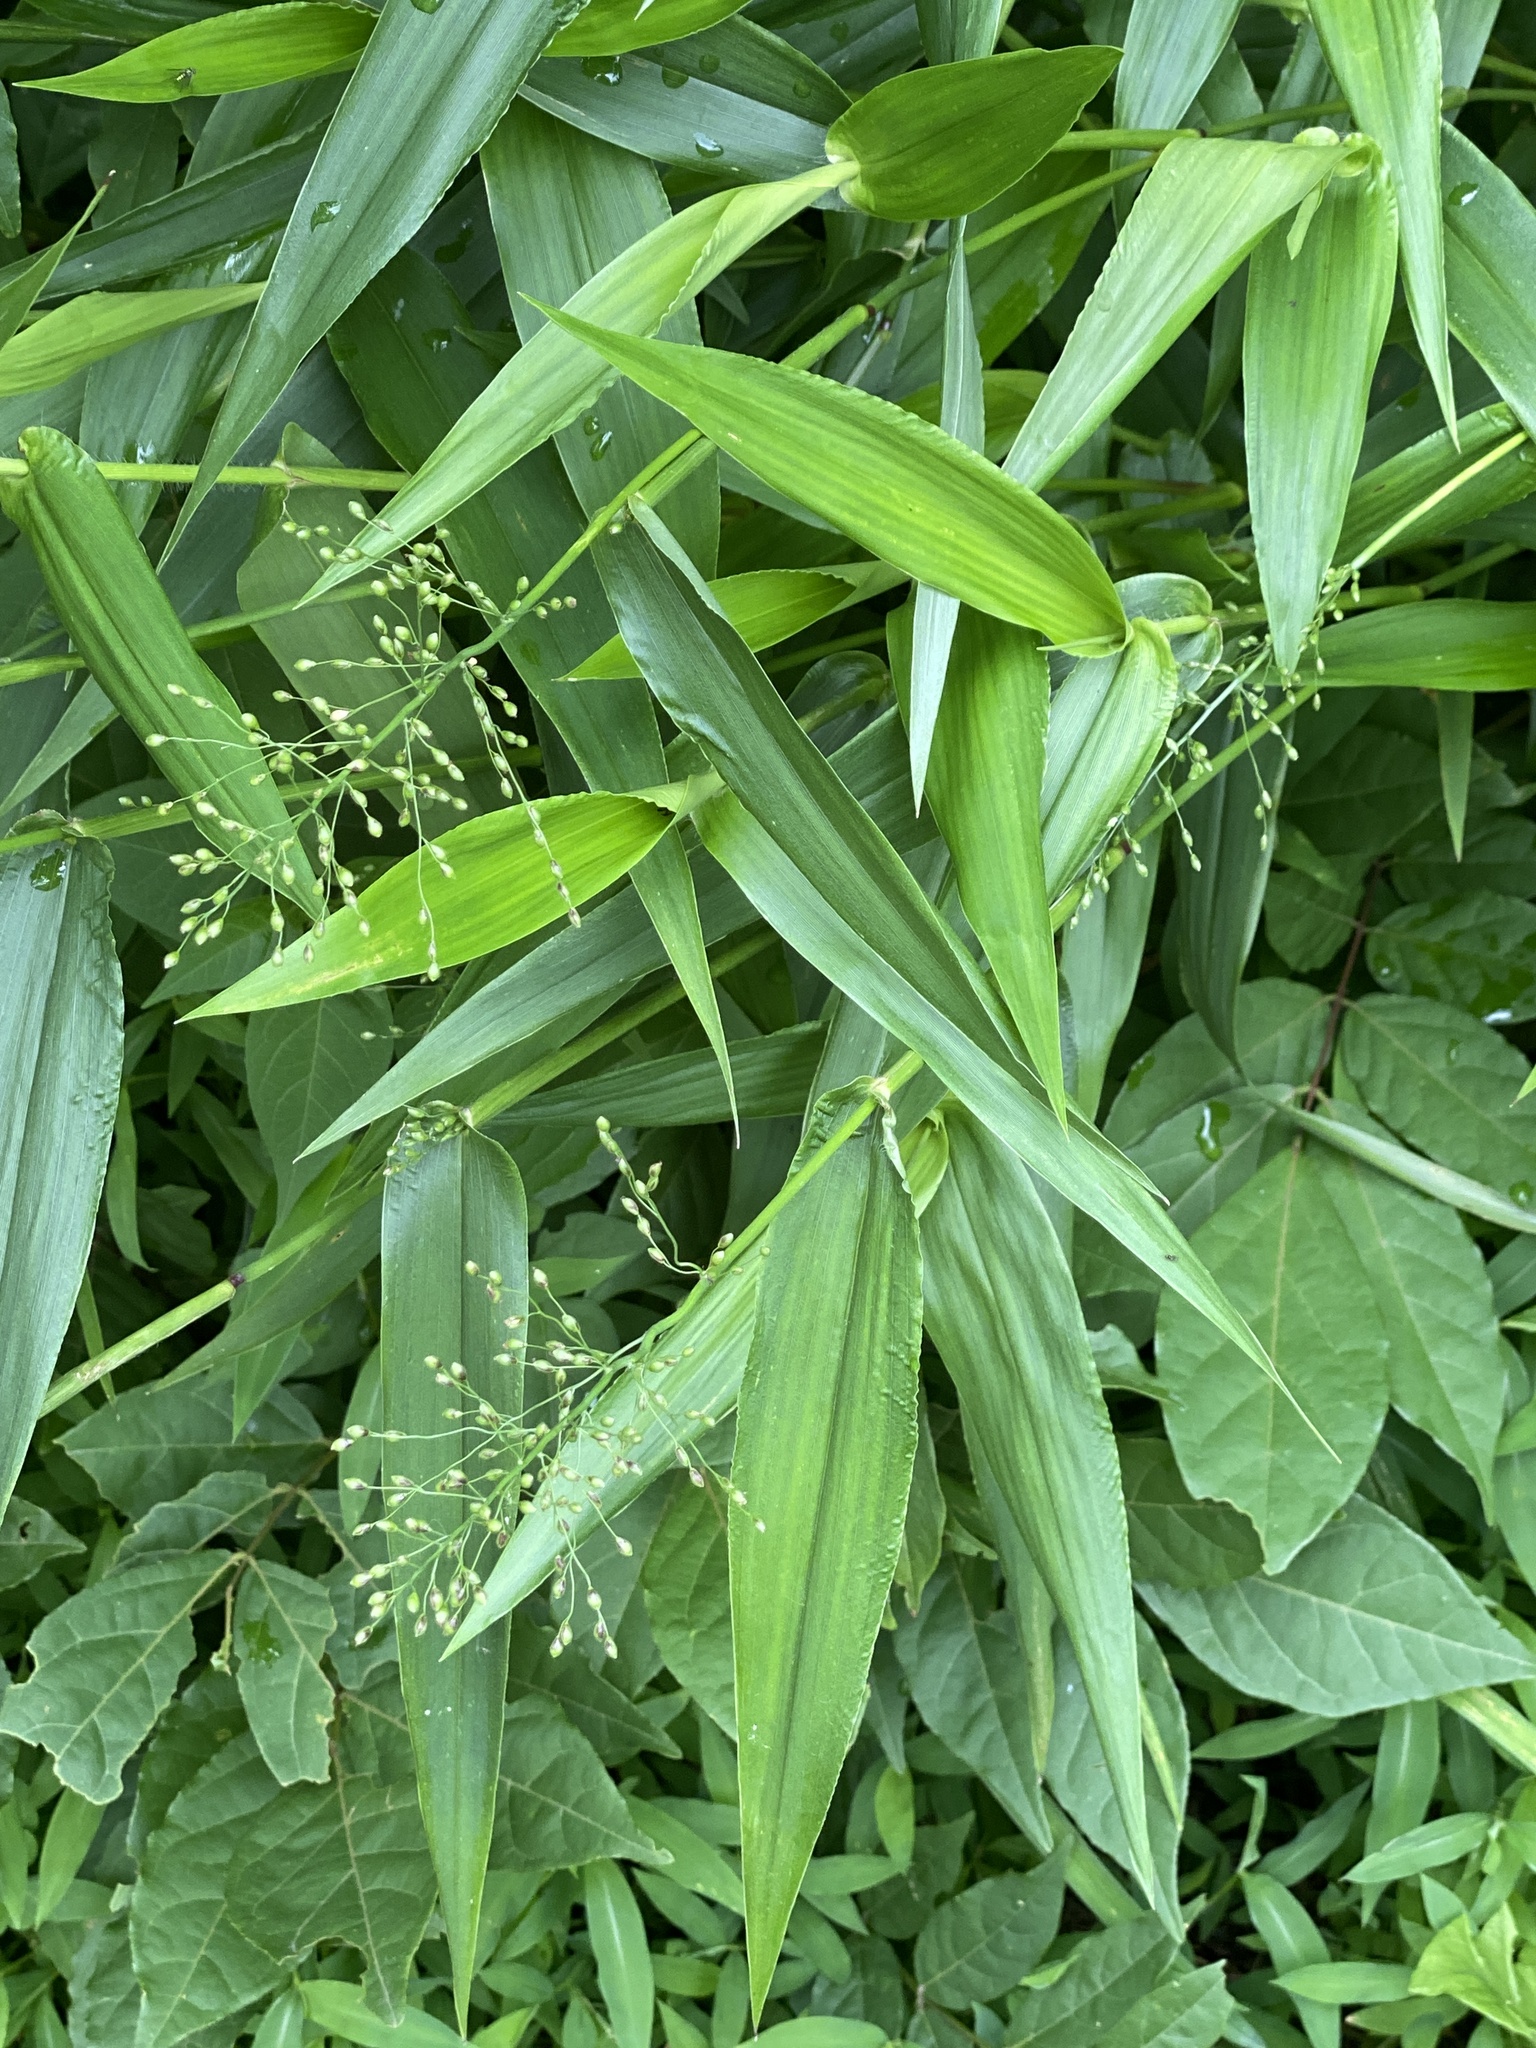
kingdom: Plantae
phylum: Tracheophyta
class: Liliopsida
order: Poales
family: Poaceae
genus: Dichanthelium
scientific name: Dichanthelium clandestinum
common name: Deer-tongue grass
